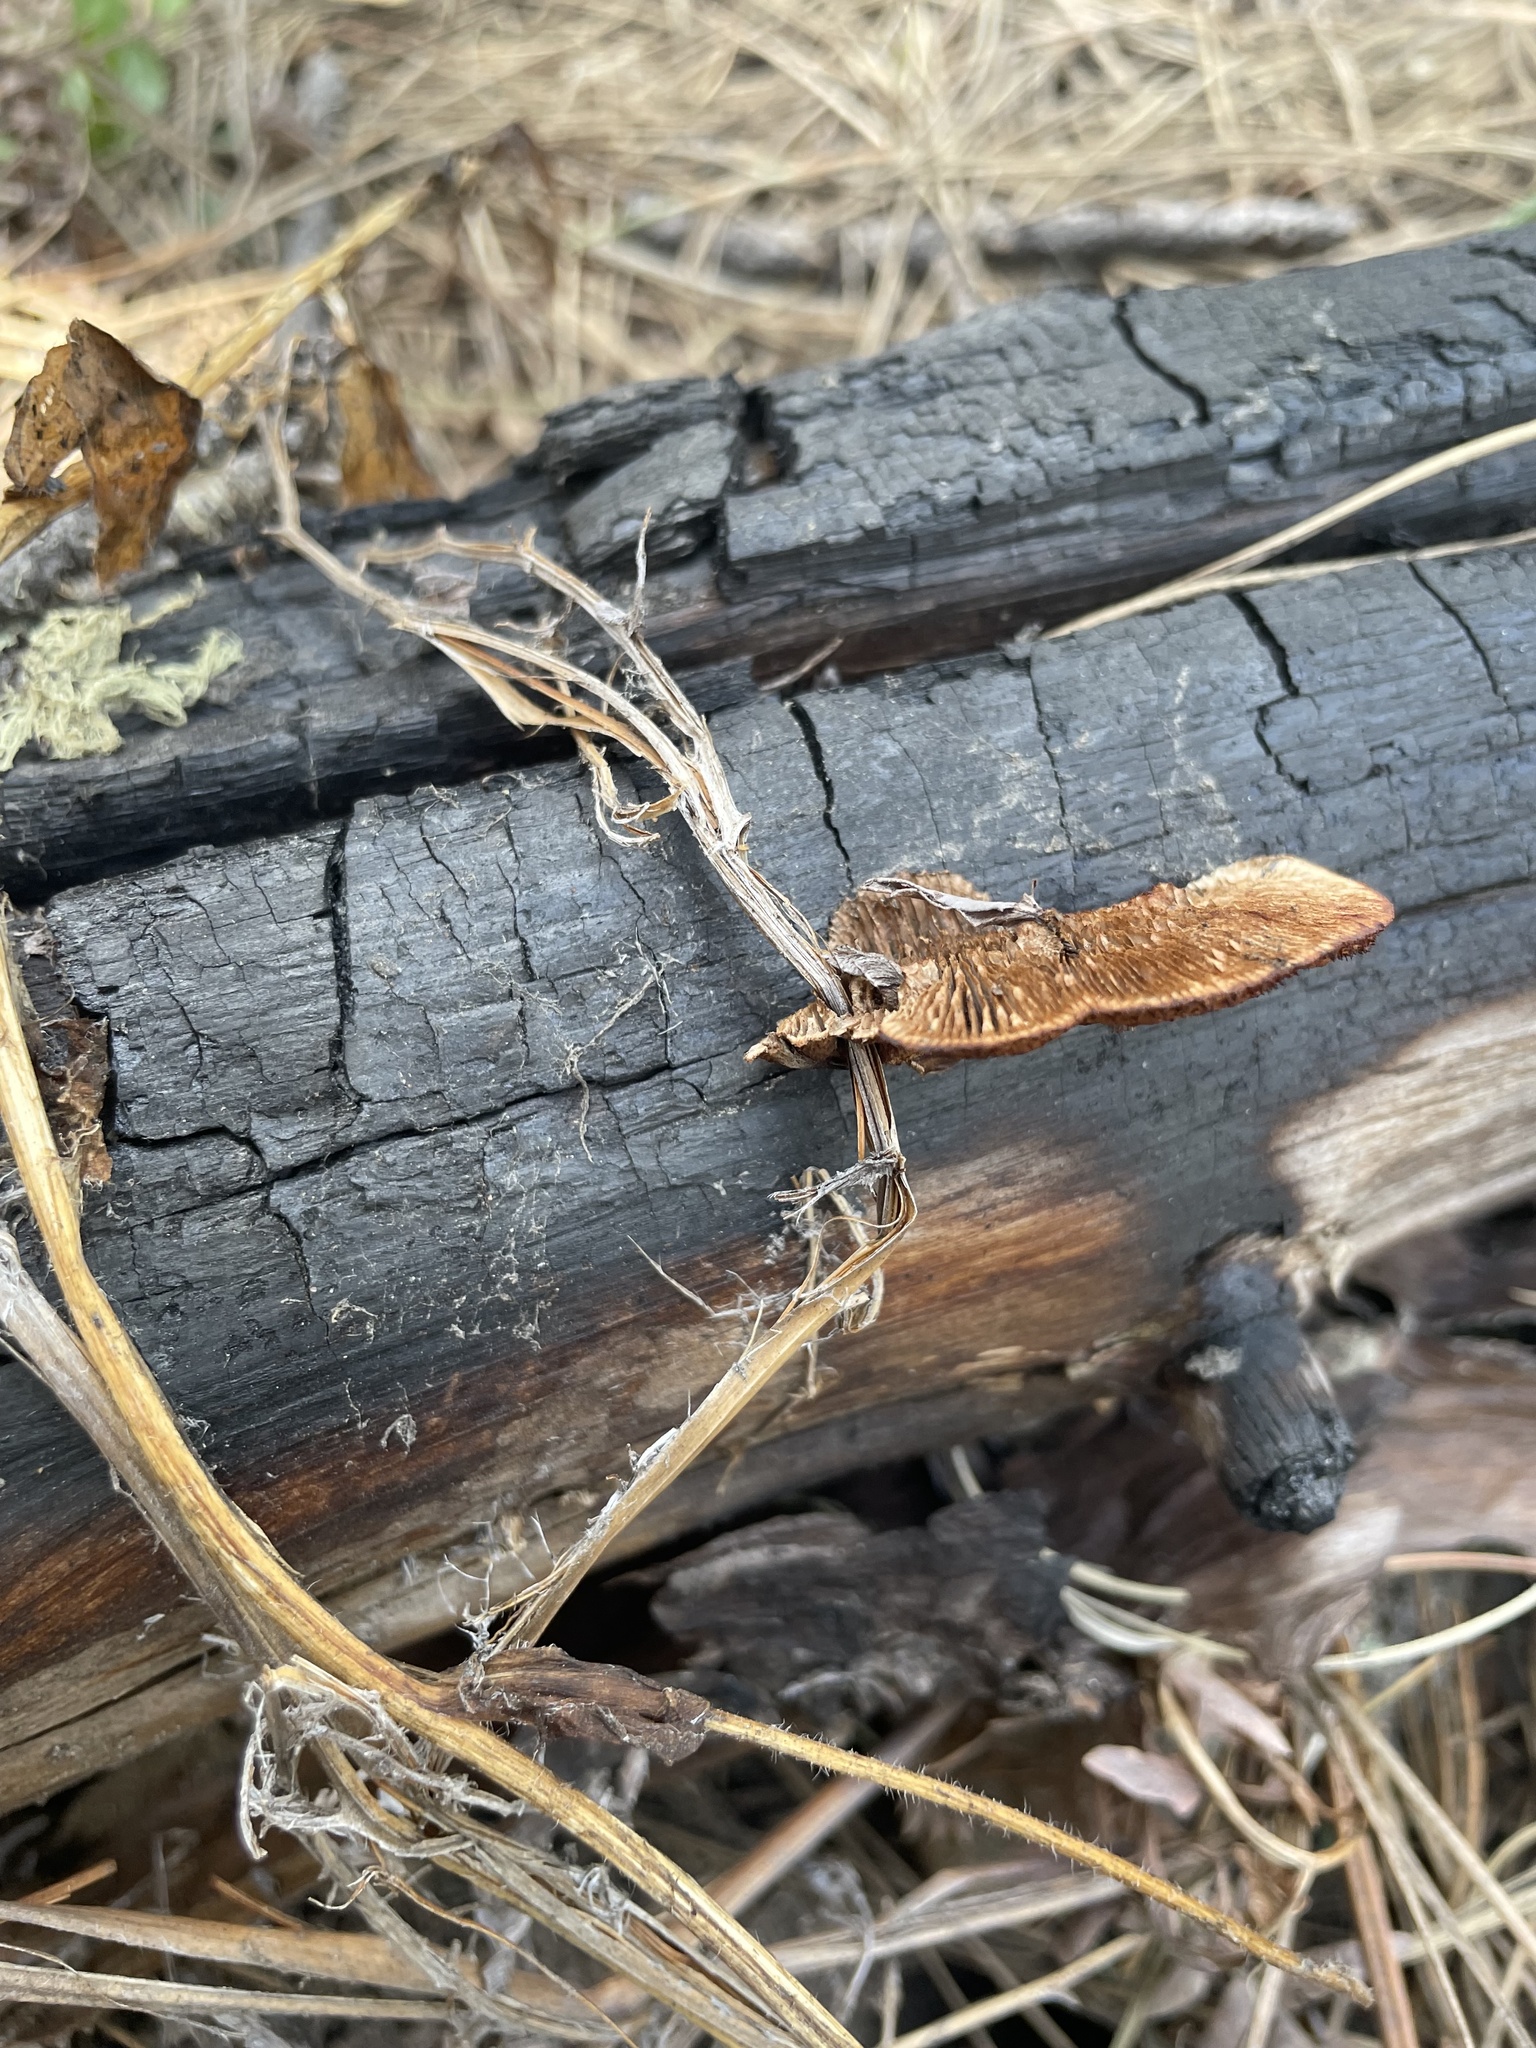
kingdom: Fungi
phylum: Basidiomycota
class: Agaricomycetes
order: Gloeophyllales
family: Gloeophyllaceae
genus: Gloeophyllum
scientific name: Gloeophyllum sepiarium
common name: Conifer mazegill
